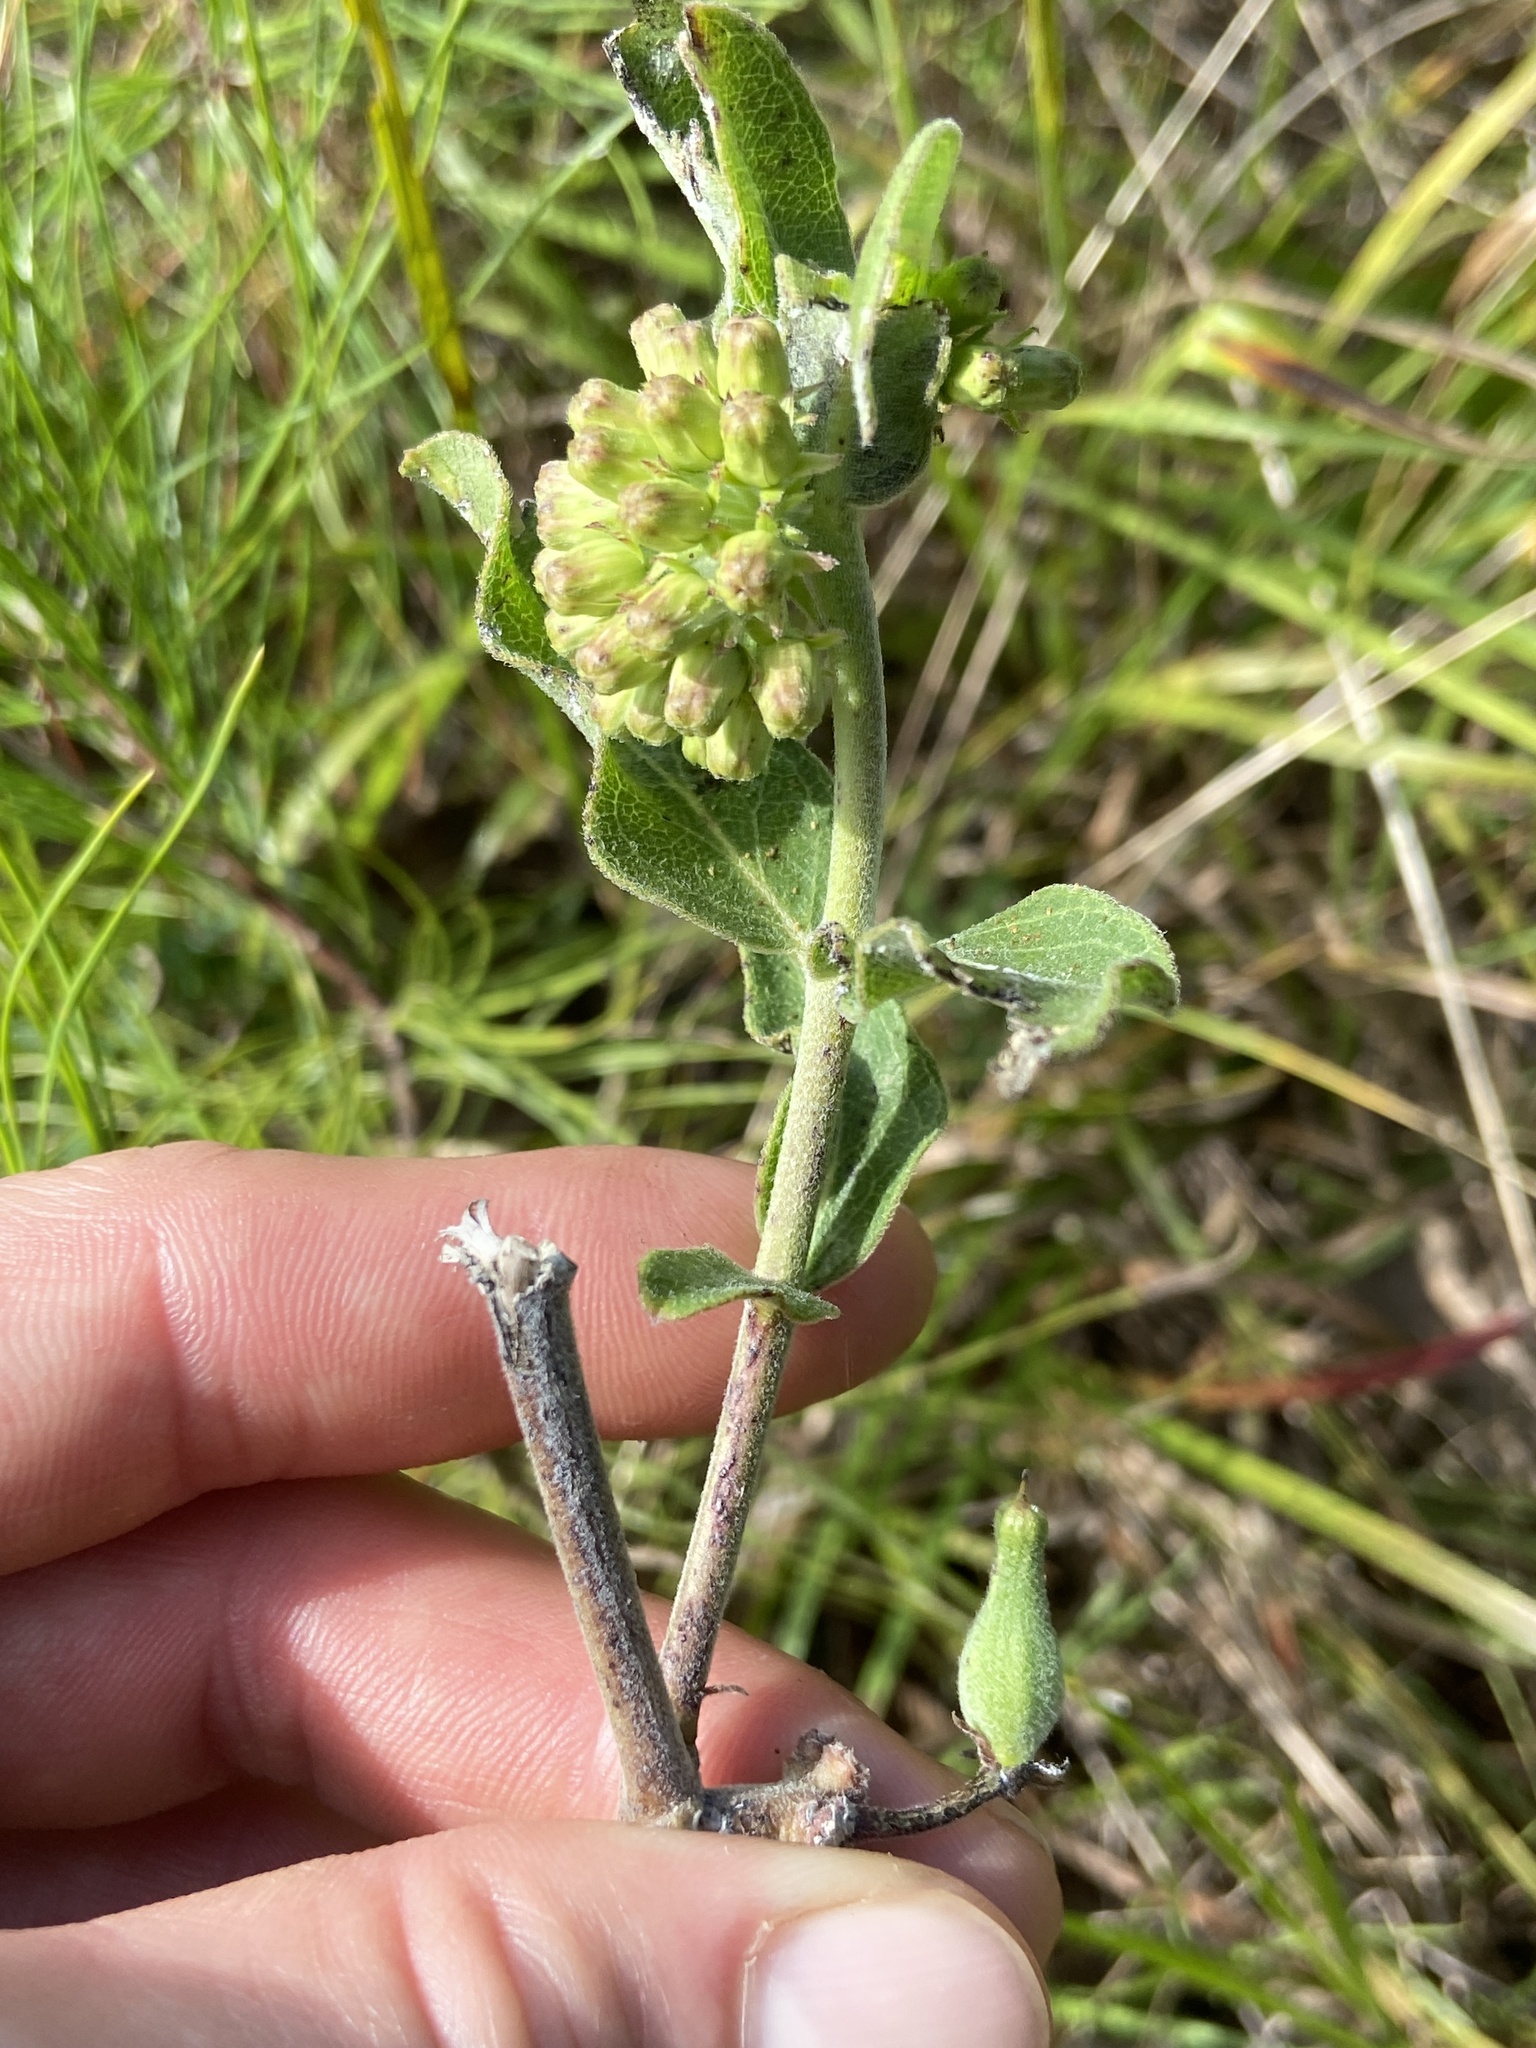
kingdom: Plantae
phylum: Tracheophyta
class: Magnoliopsida
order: Gentianales
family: Apocynaceae
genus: Asclepias
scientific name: Asclepias viridiflora
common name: Green comet milkweed
